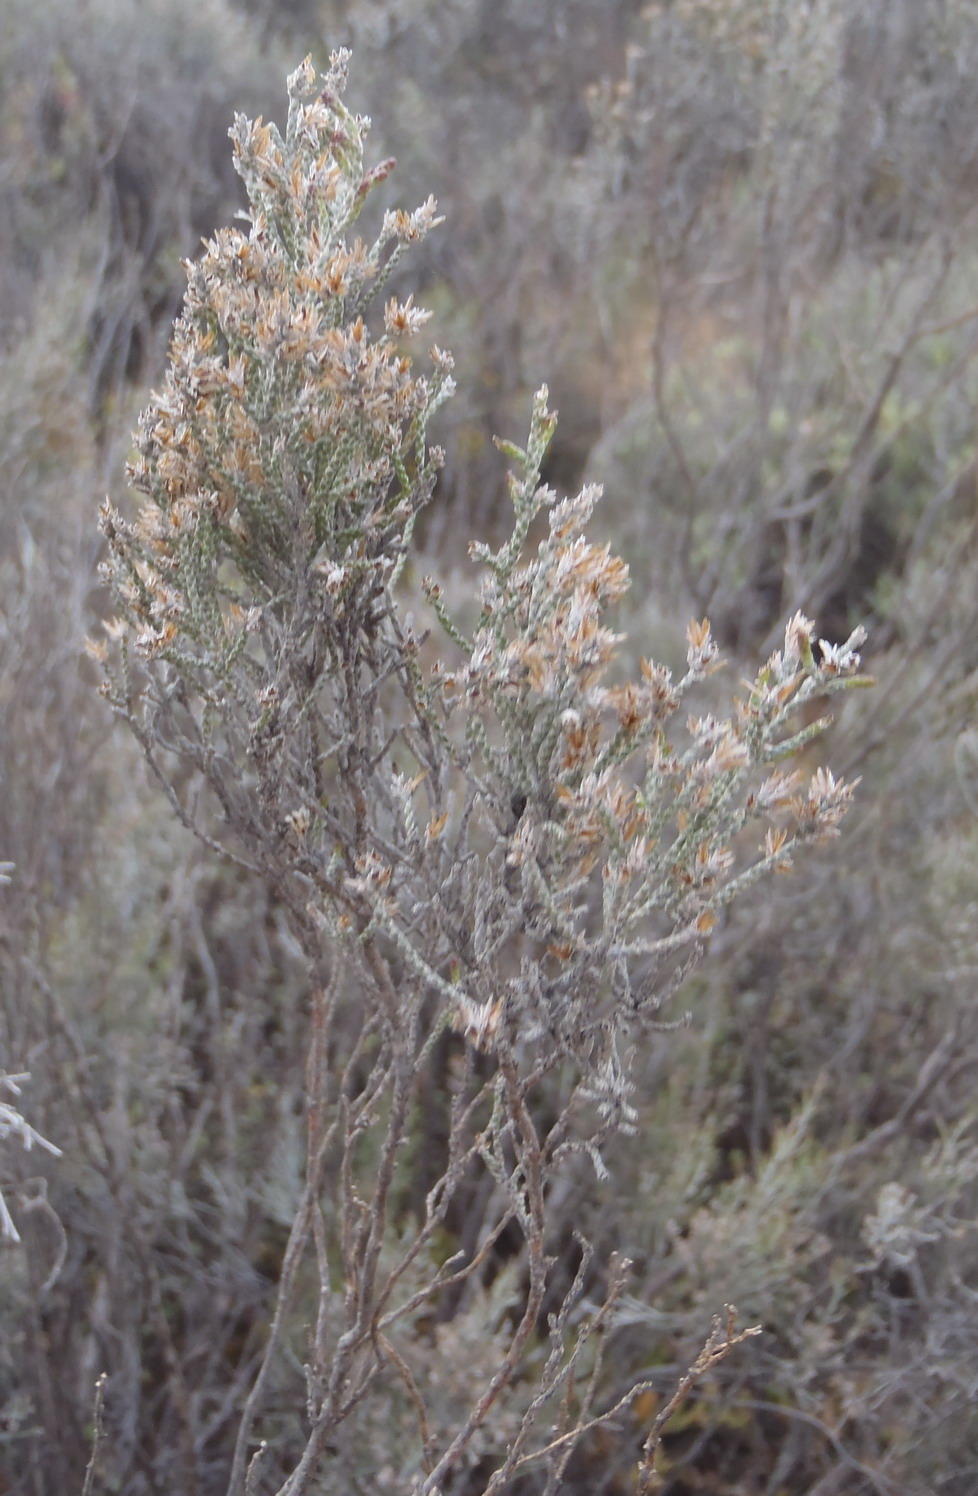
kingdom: Plantae
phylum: Tracheophyta
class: Magnoliopsida
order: Asterales
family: Asteraceae
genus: Dicerothamnus
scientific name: Dicerothamnus rhinocerotis
